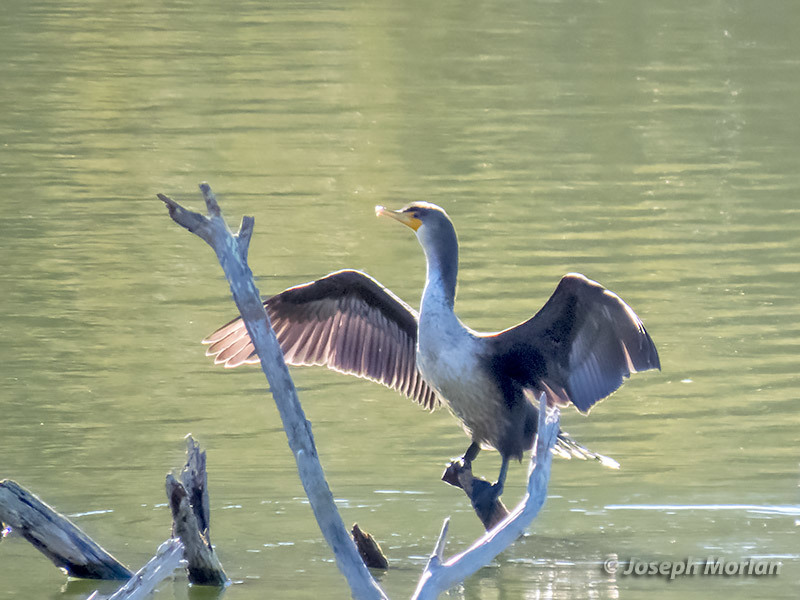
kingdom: Animalia
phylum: Chordata
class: Aves
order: Suliformes
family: Phalacrocoracidae
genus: Phalacrocorax
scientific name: Phalacrocorax auritus
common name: Double-crested cormorant
